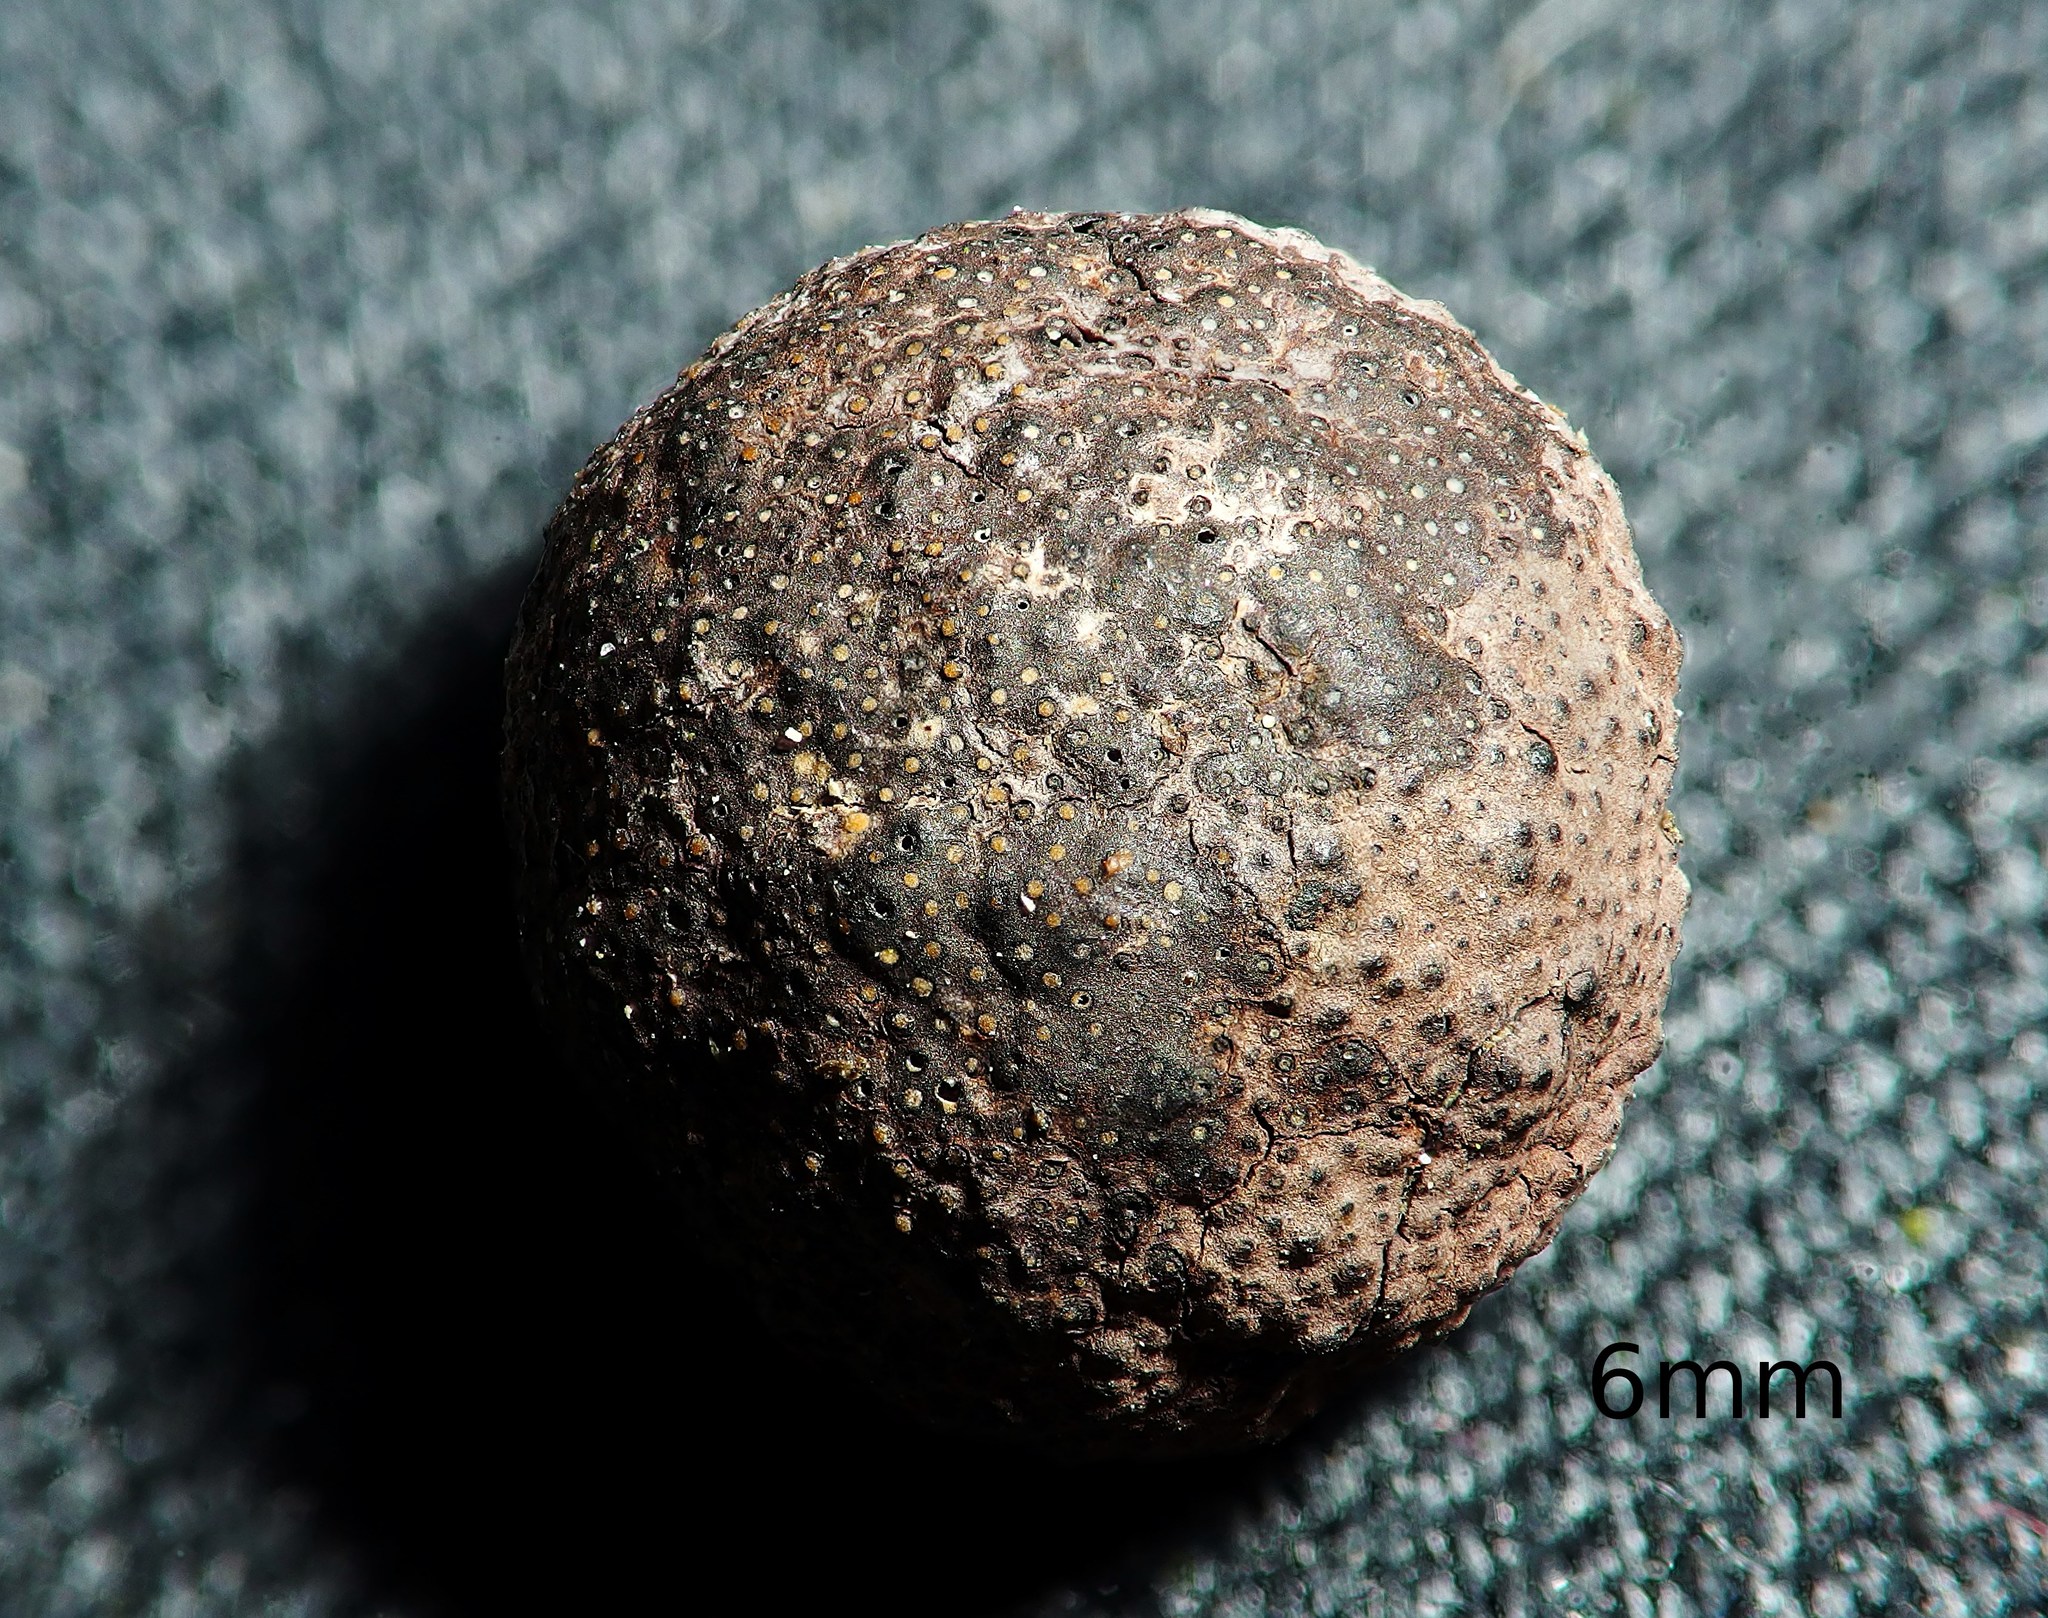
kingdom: Fungi
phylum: Ascomycota
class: Lecanoromycetes
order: Teloschistales
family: Teloschistaceae
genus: Xanthoria
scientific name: Xanthoria parietina
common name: Common orange lichen
